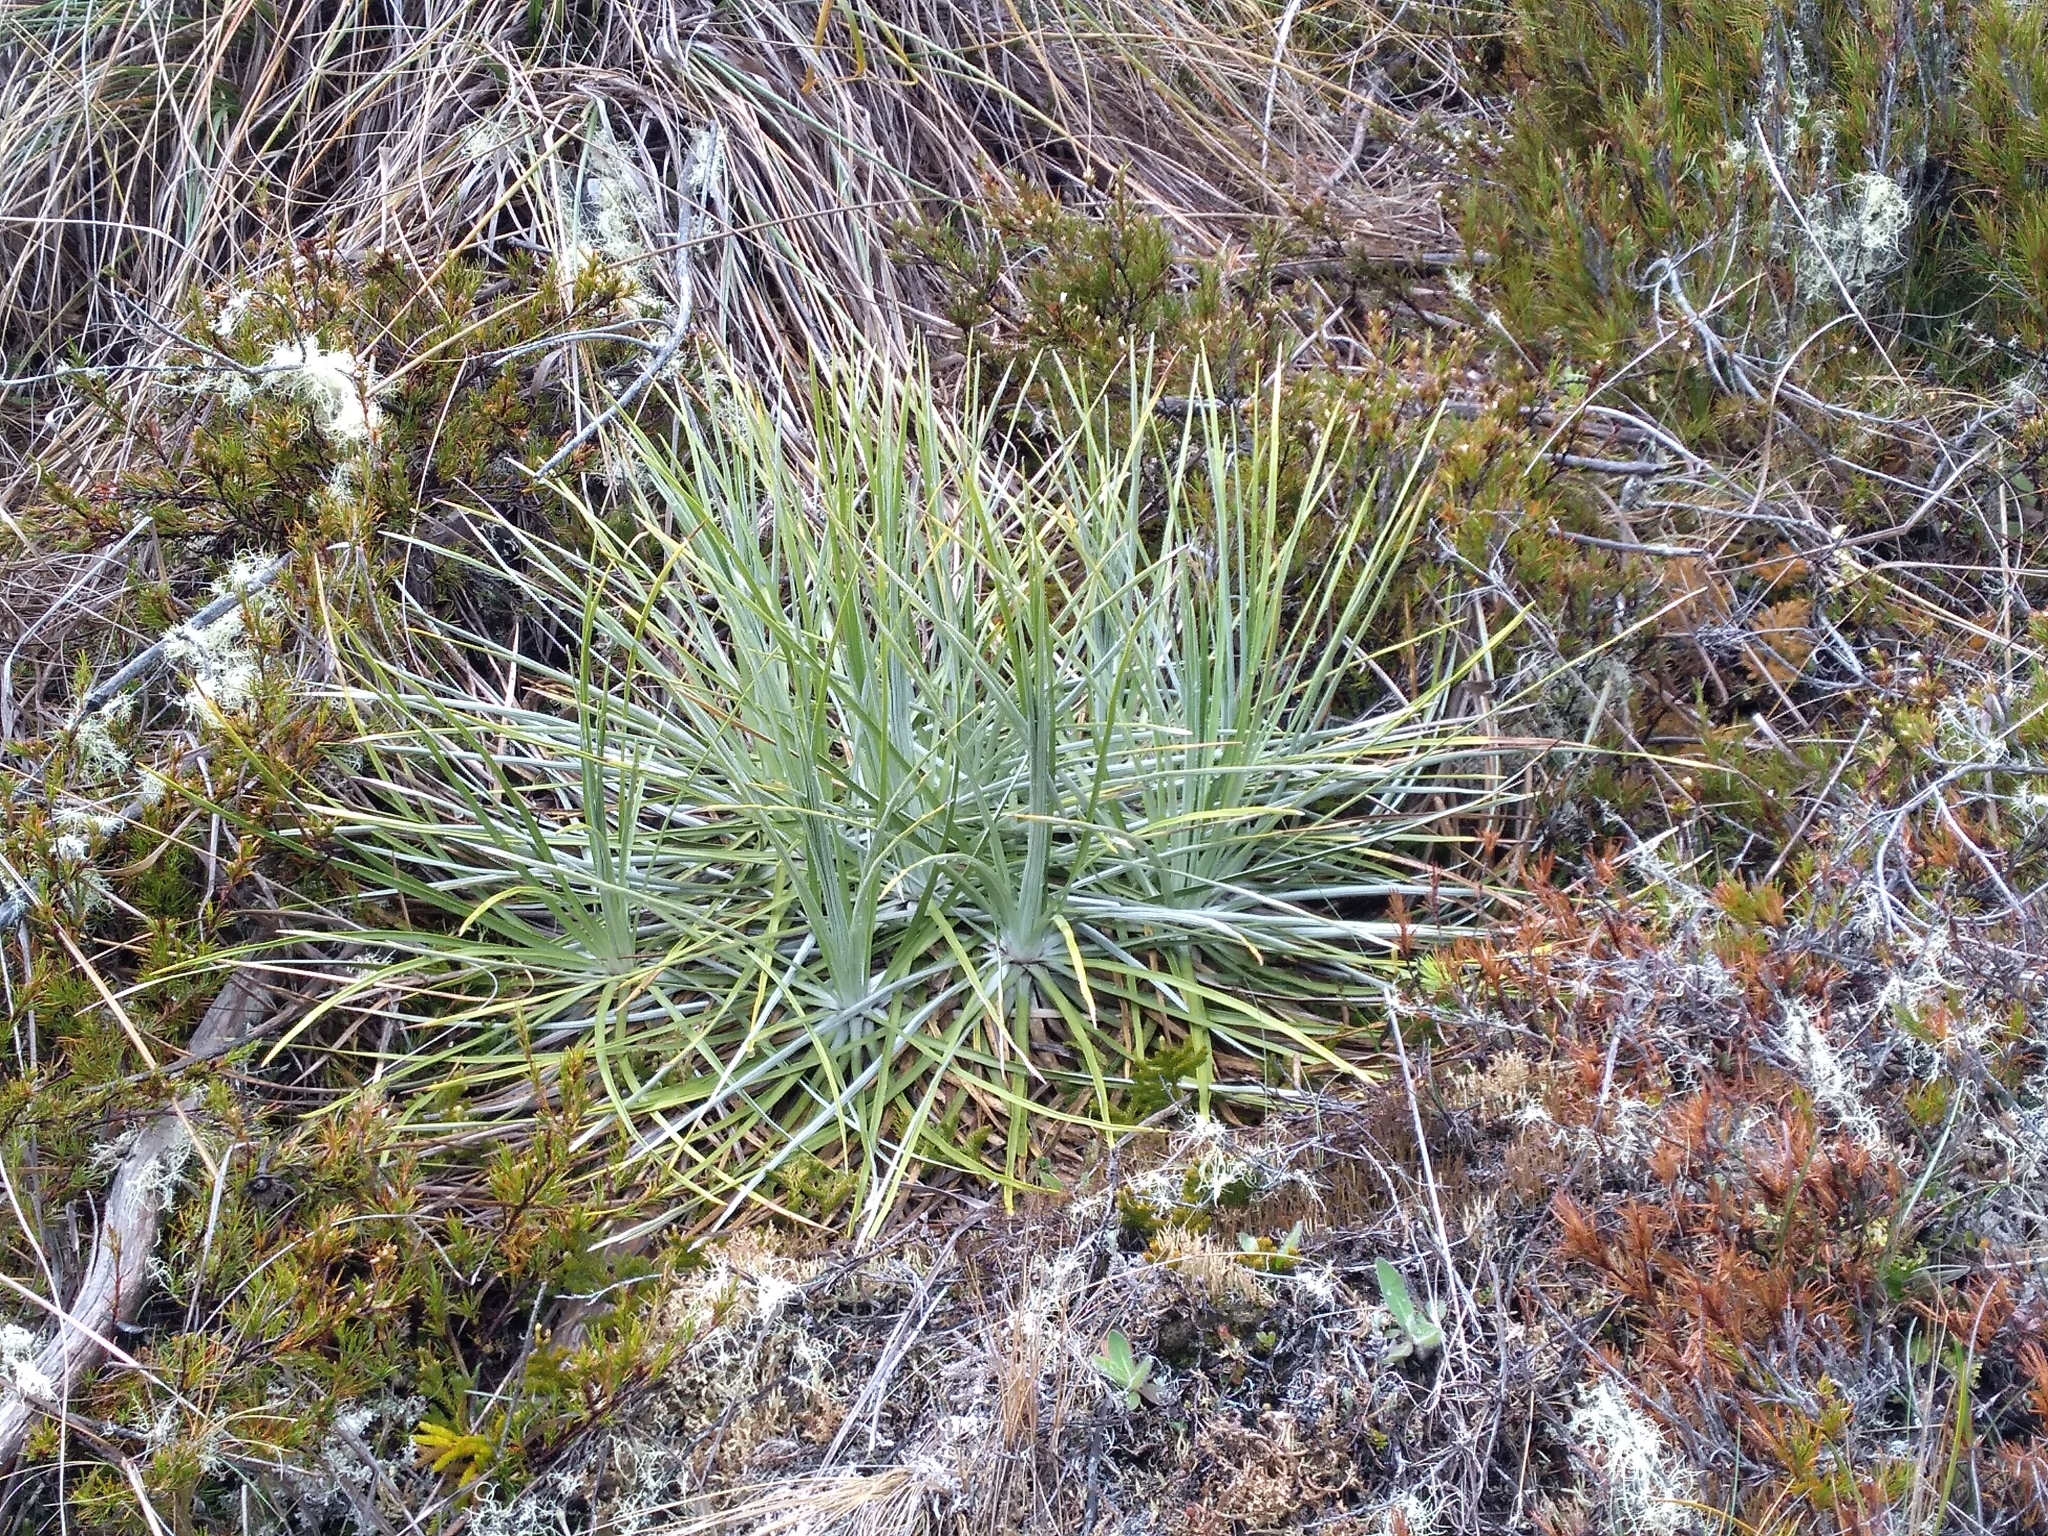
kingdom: Plantae
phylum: Tracheophyta
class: Magnoliopsida
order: Asterales
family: Asteraceae
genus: Celmisia
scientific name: Celmisia lyallii
